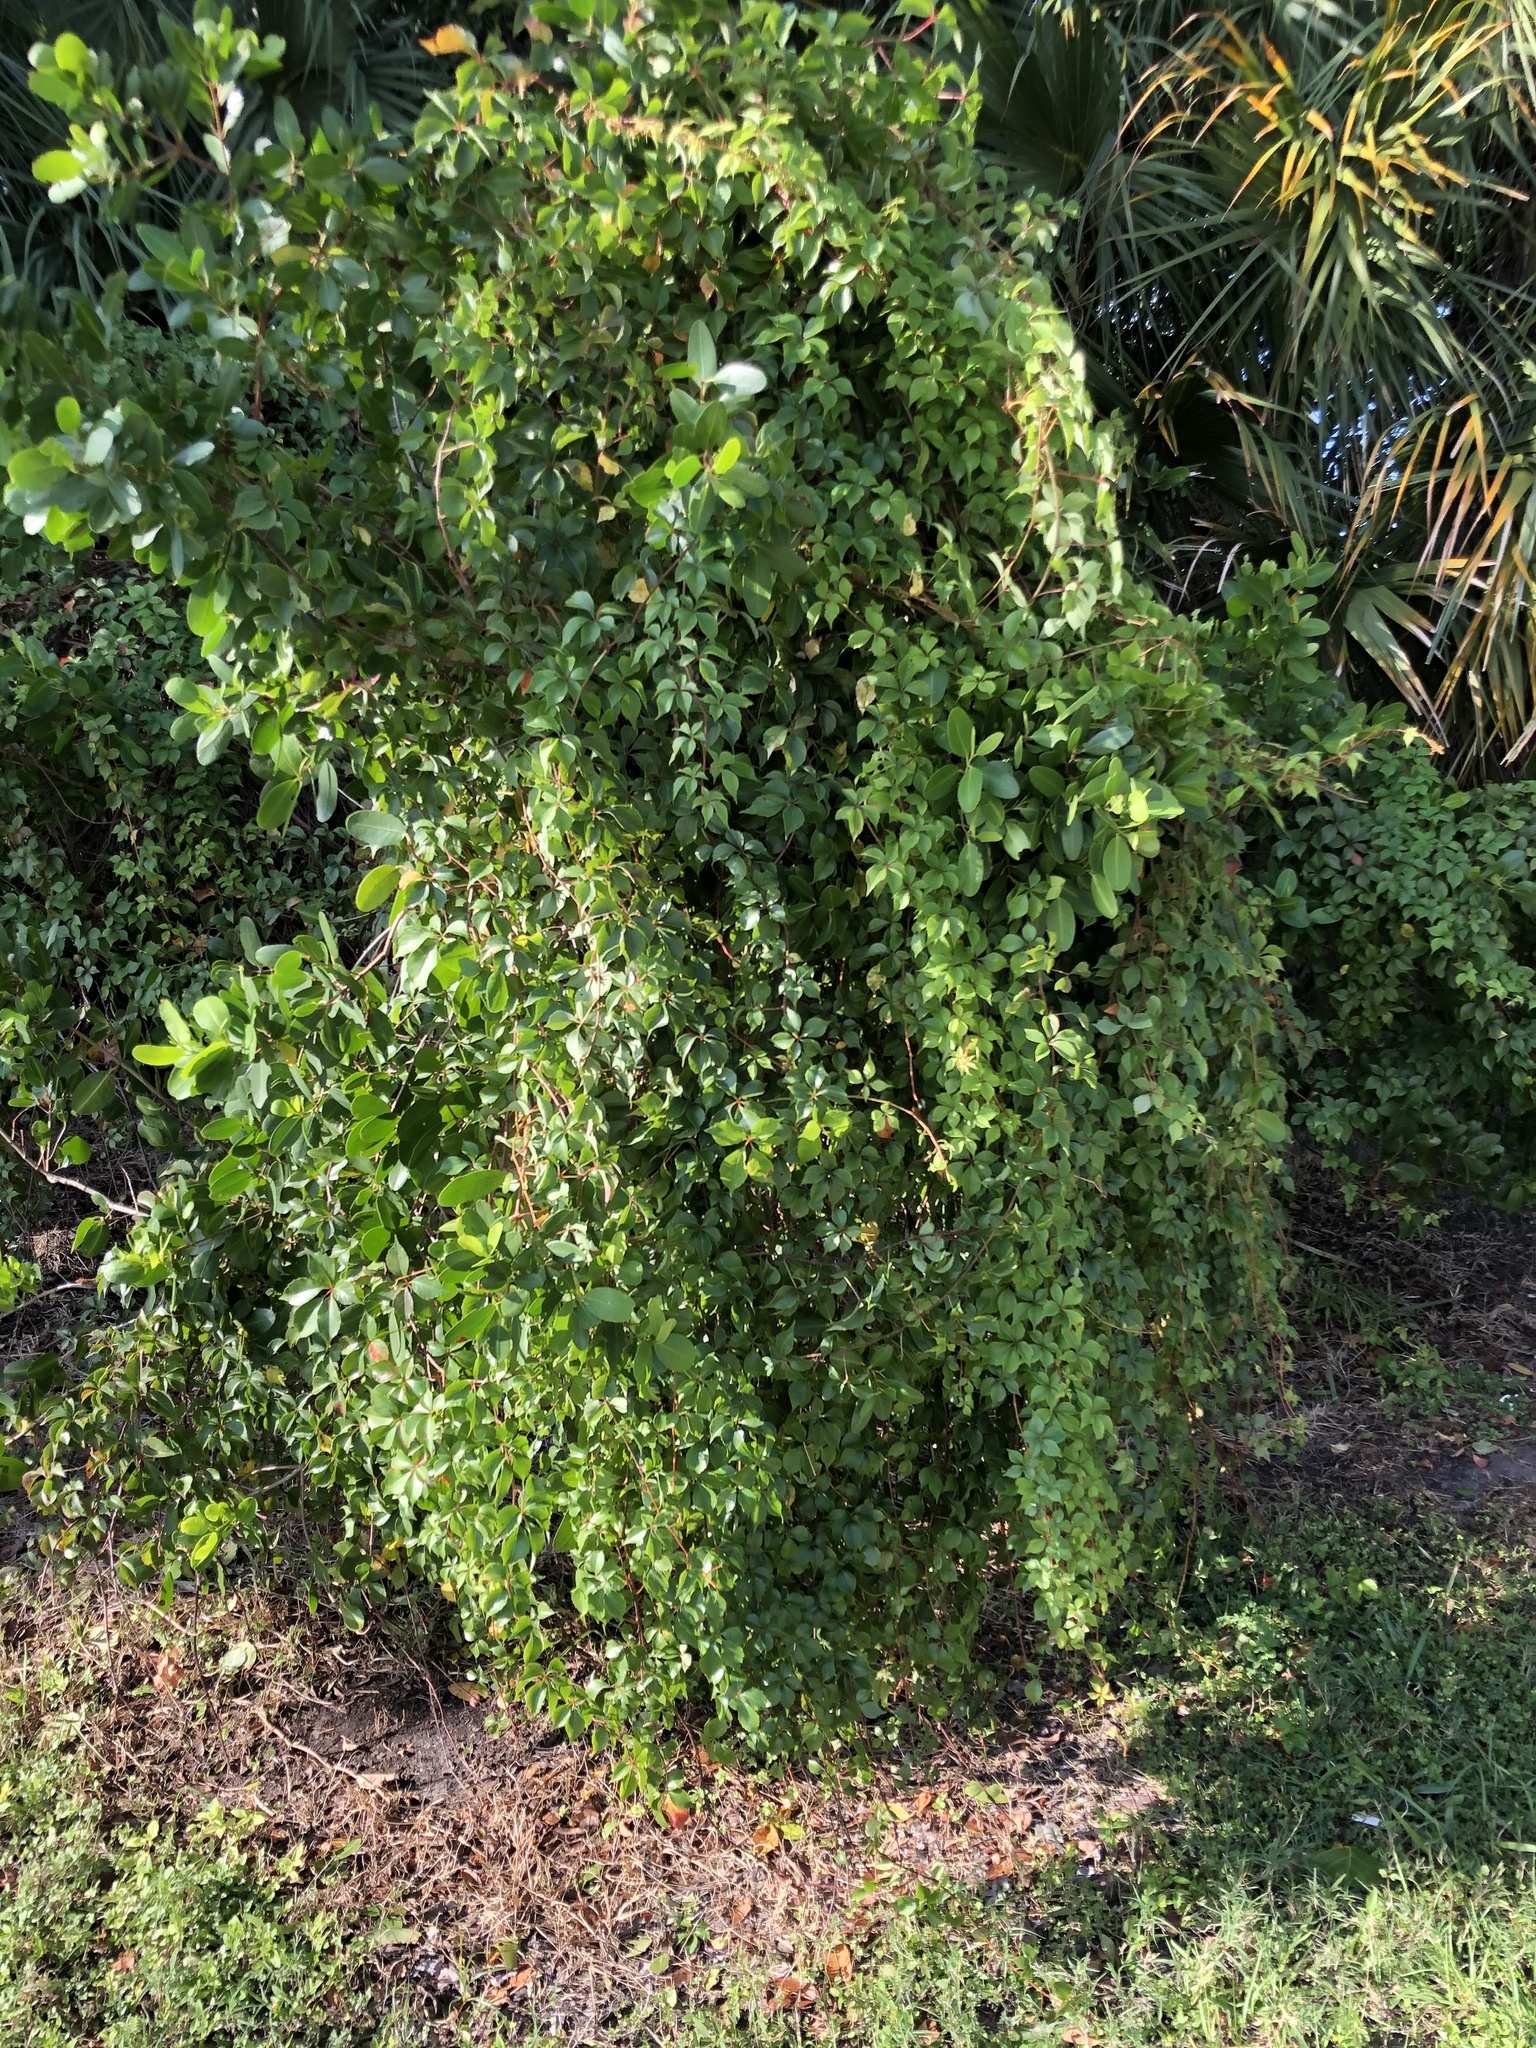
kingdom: Plantae
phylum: Tracheophyta
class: Magnoliopsida
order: Vitales
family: Vitaceae
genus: Parthenocissus
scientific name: Parthenocissus quinquefolia
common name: Virginia-creeper
